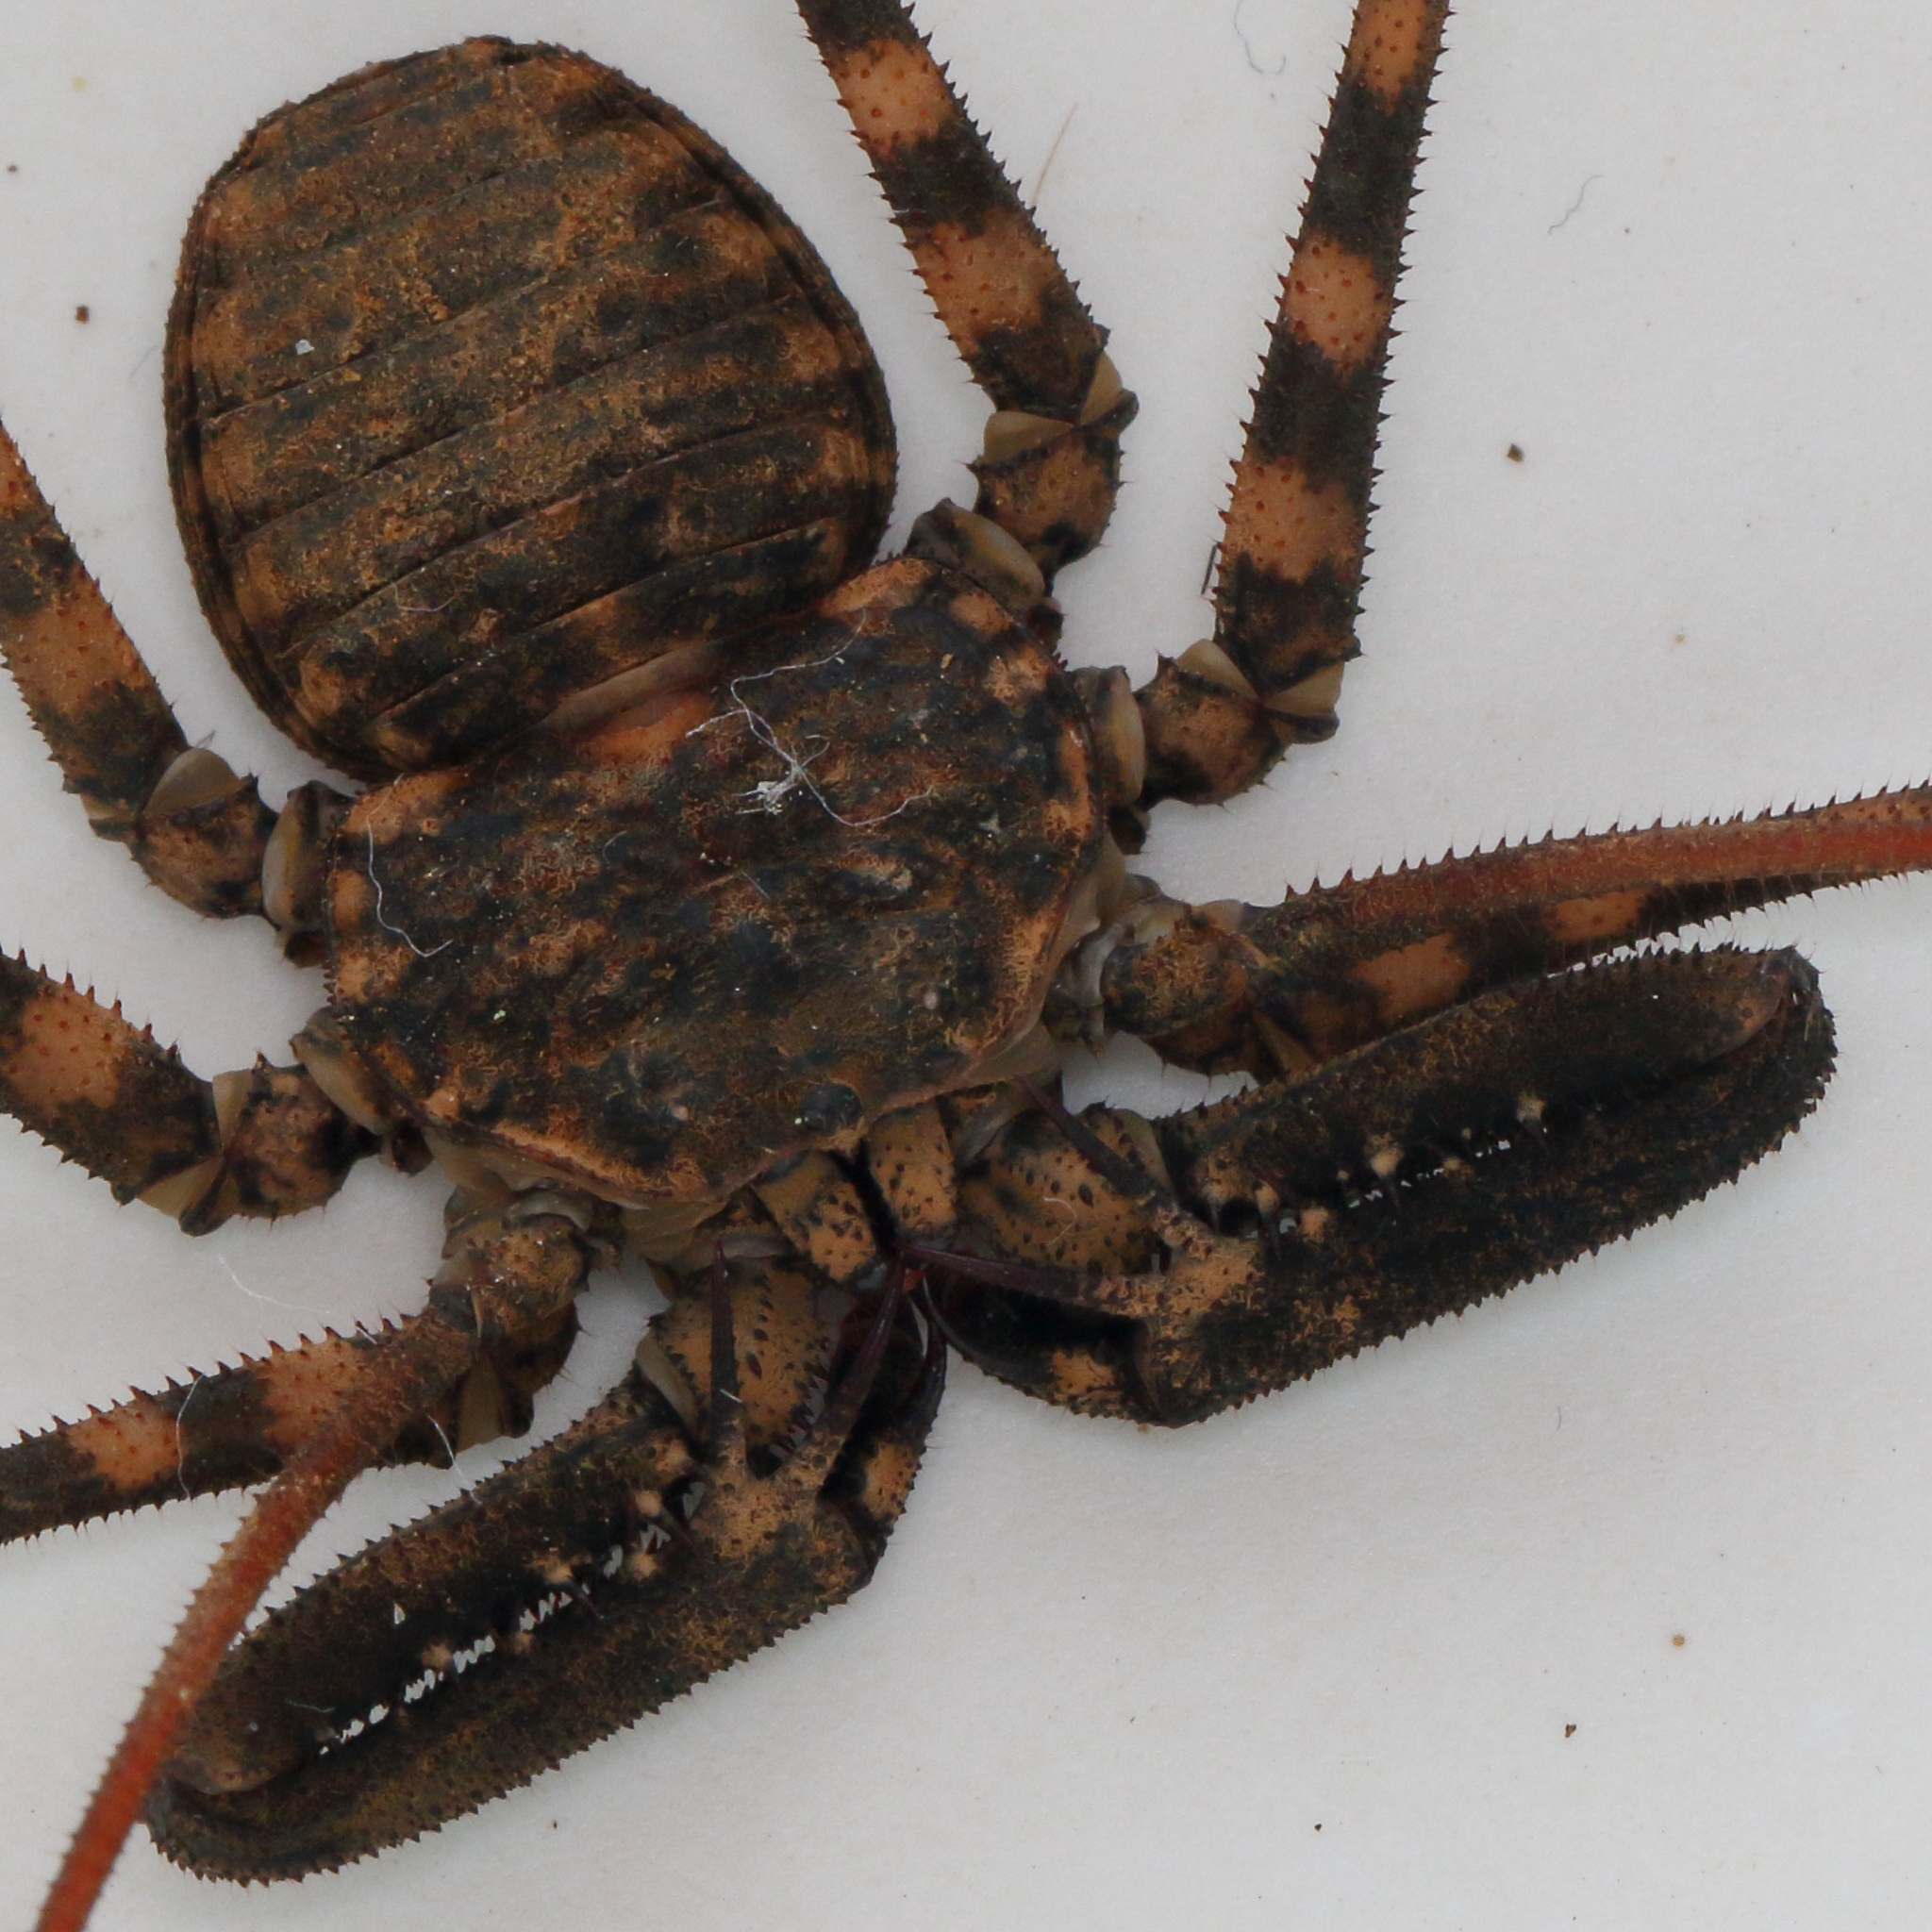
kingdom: Animalia
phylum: Arthropoda
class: Arachnida
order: Amblypygi
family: Phrynichidae
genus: Damon
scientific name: Damon annulatipes
